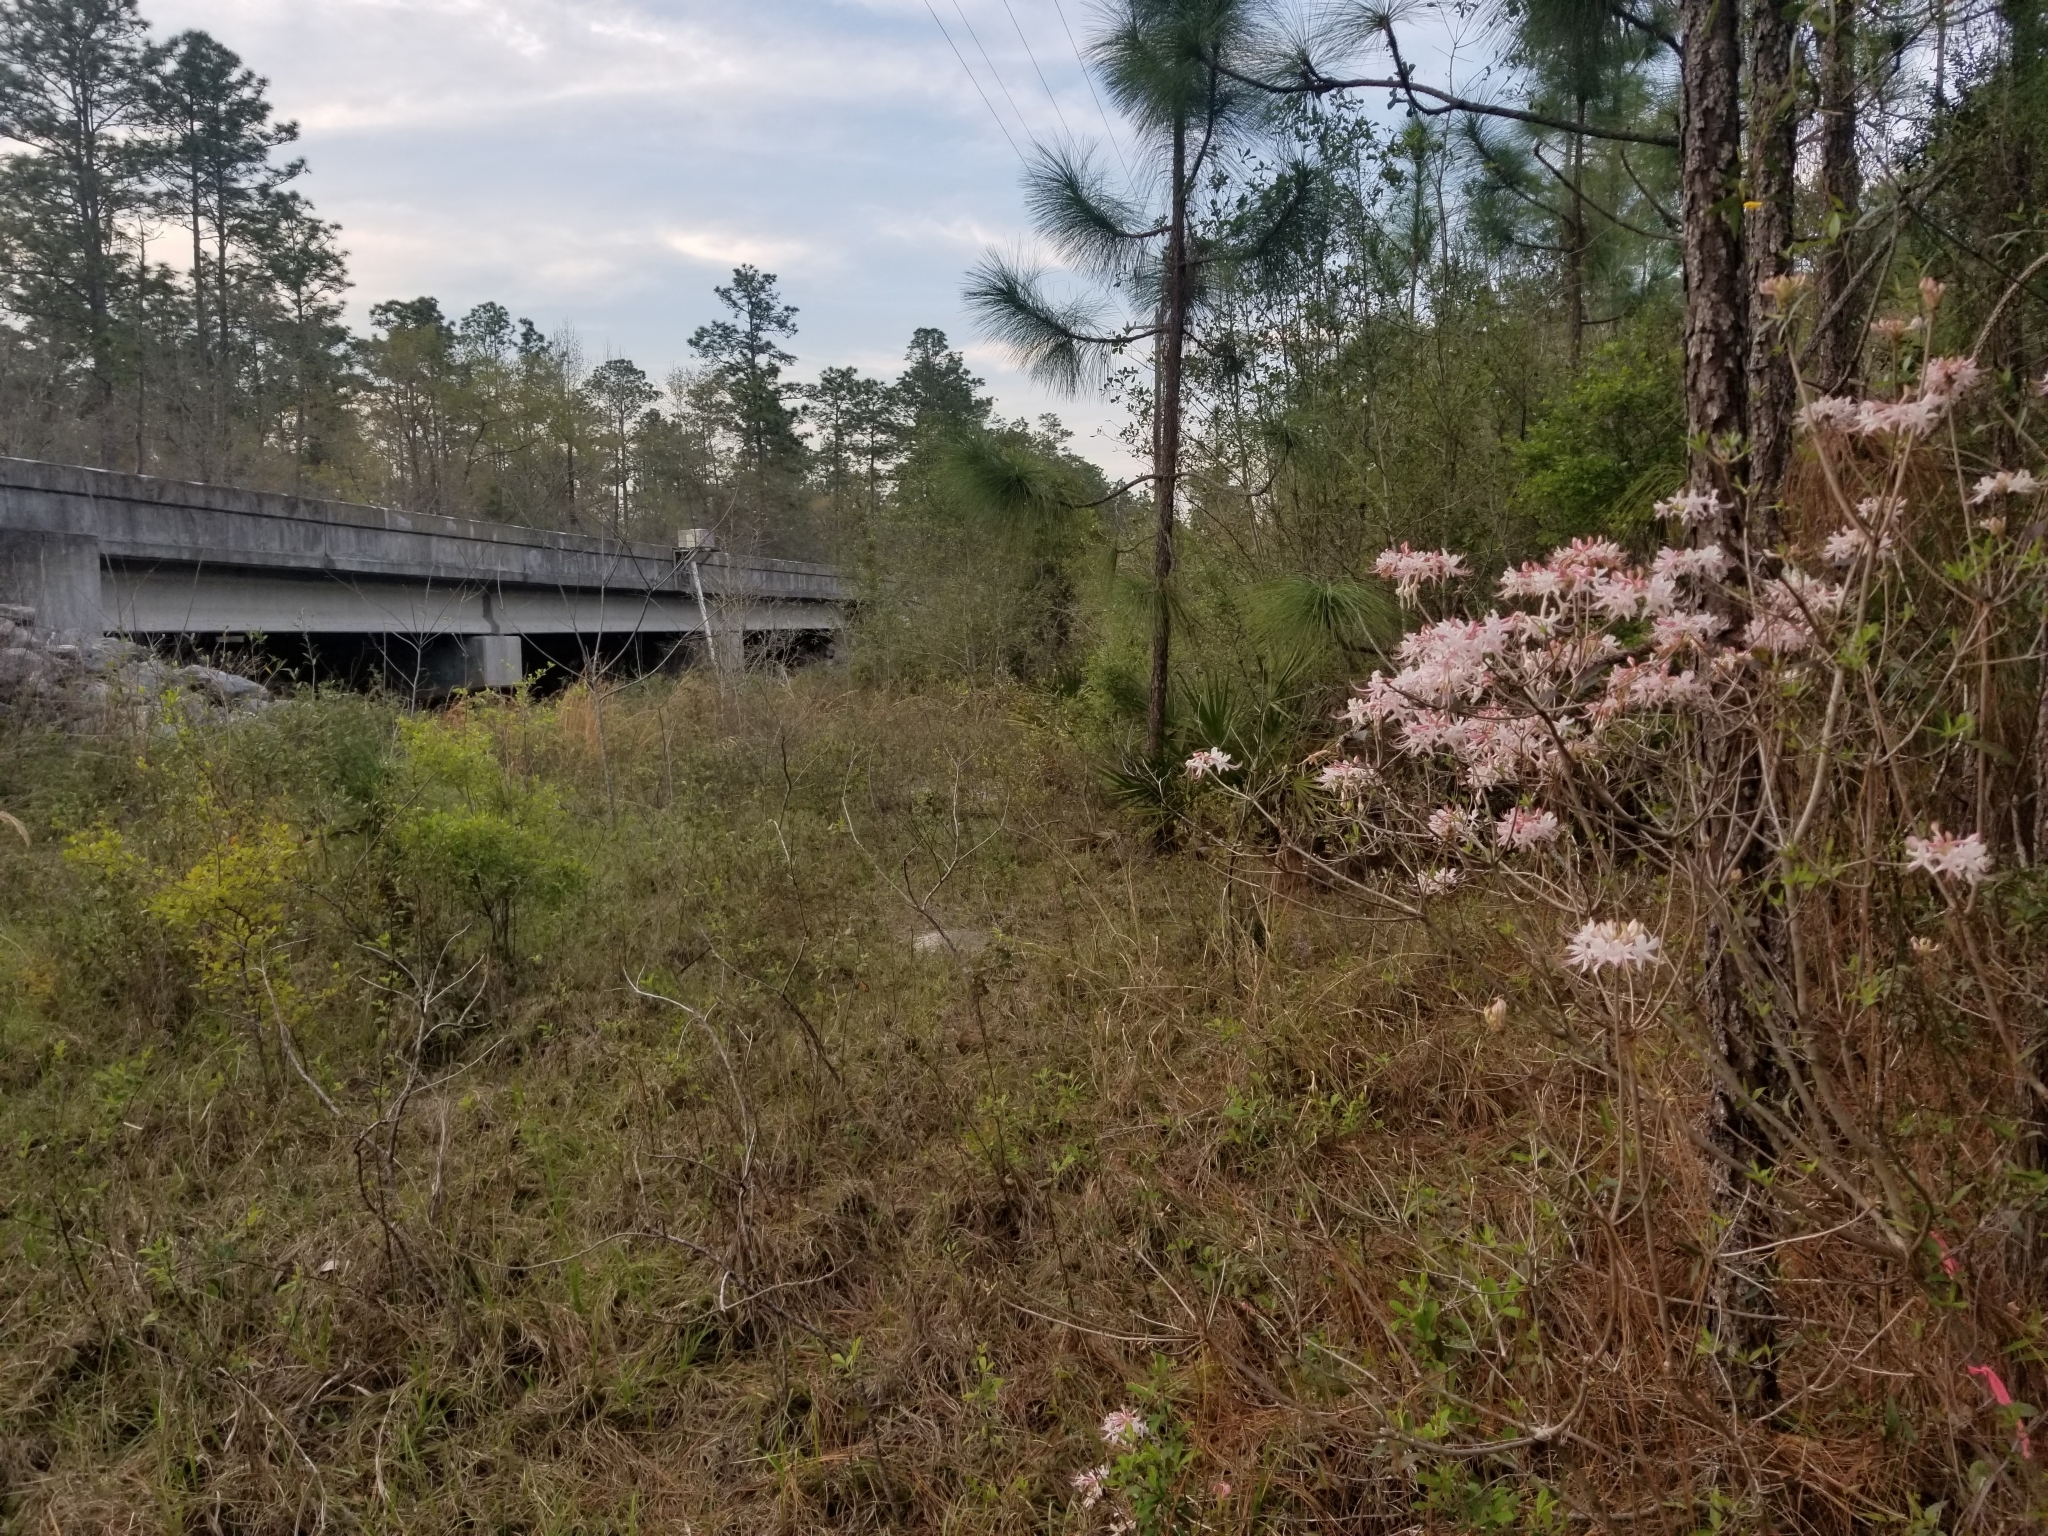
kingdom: Plantae
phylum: Tracheophyta
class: Magnoliopsida
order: Ericales
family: Ericaceae
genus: Rhododendron
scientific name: Rhododendron canescens
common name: Mountain azalea
